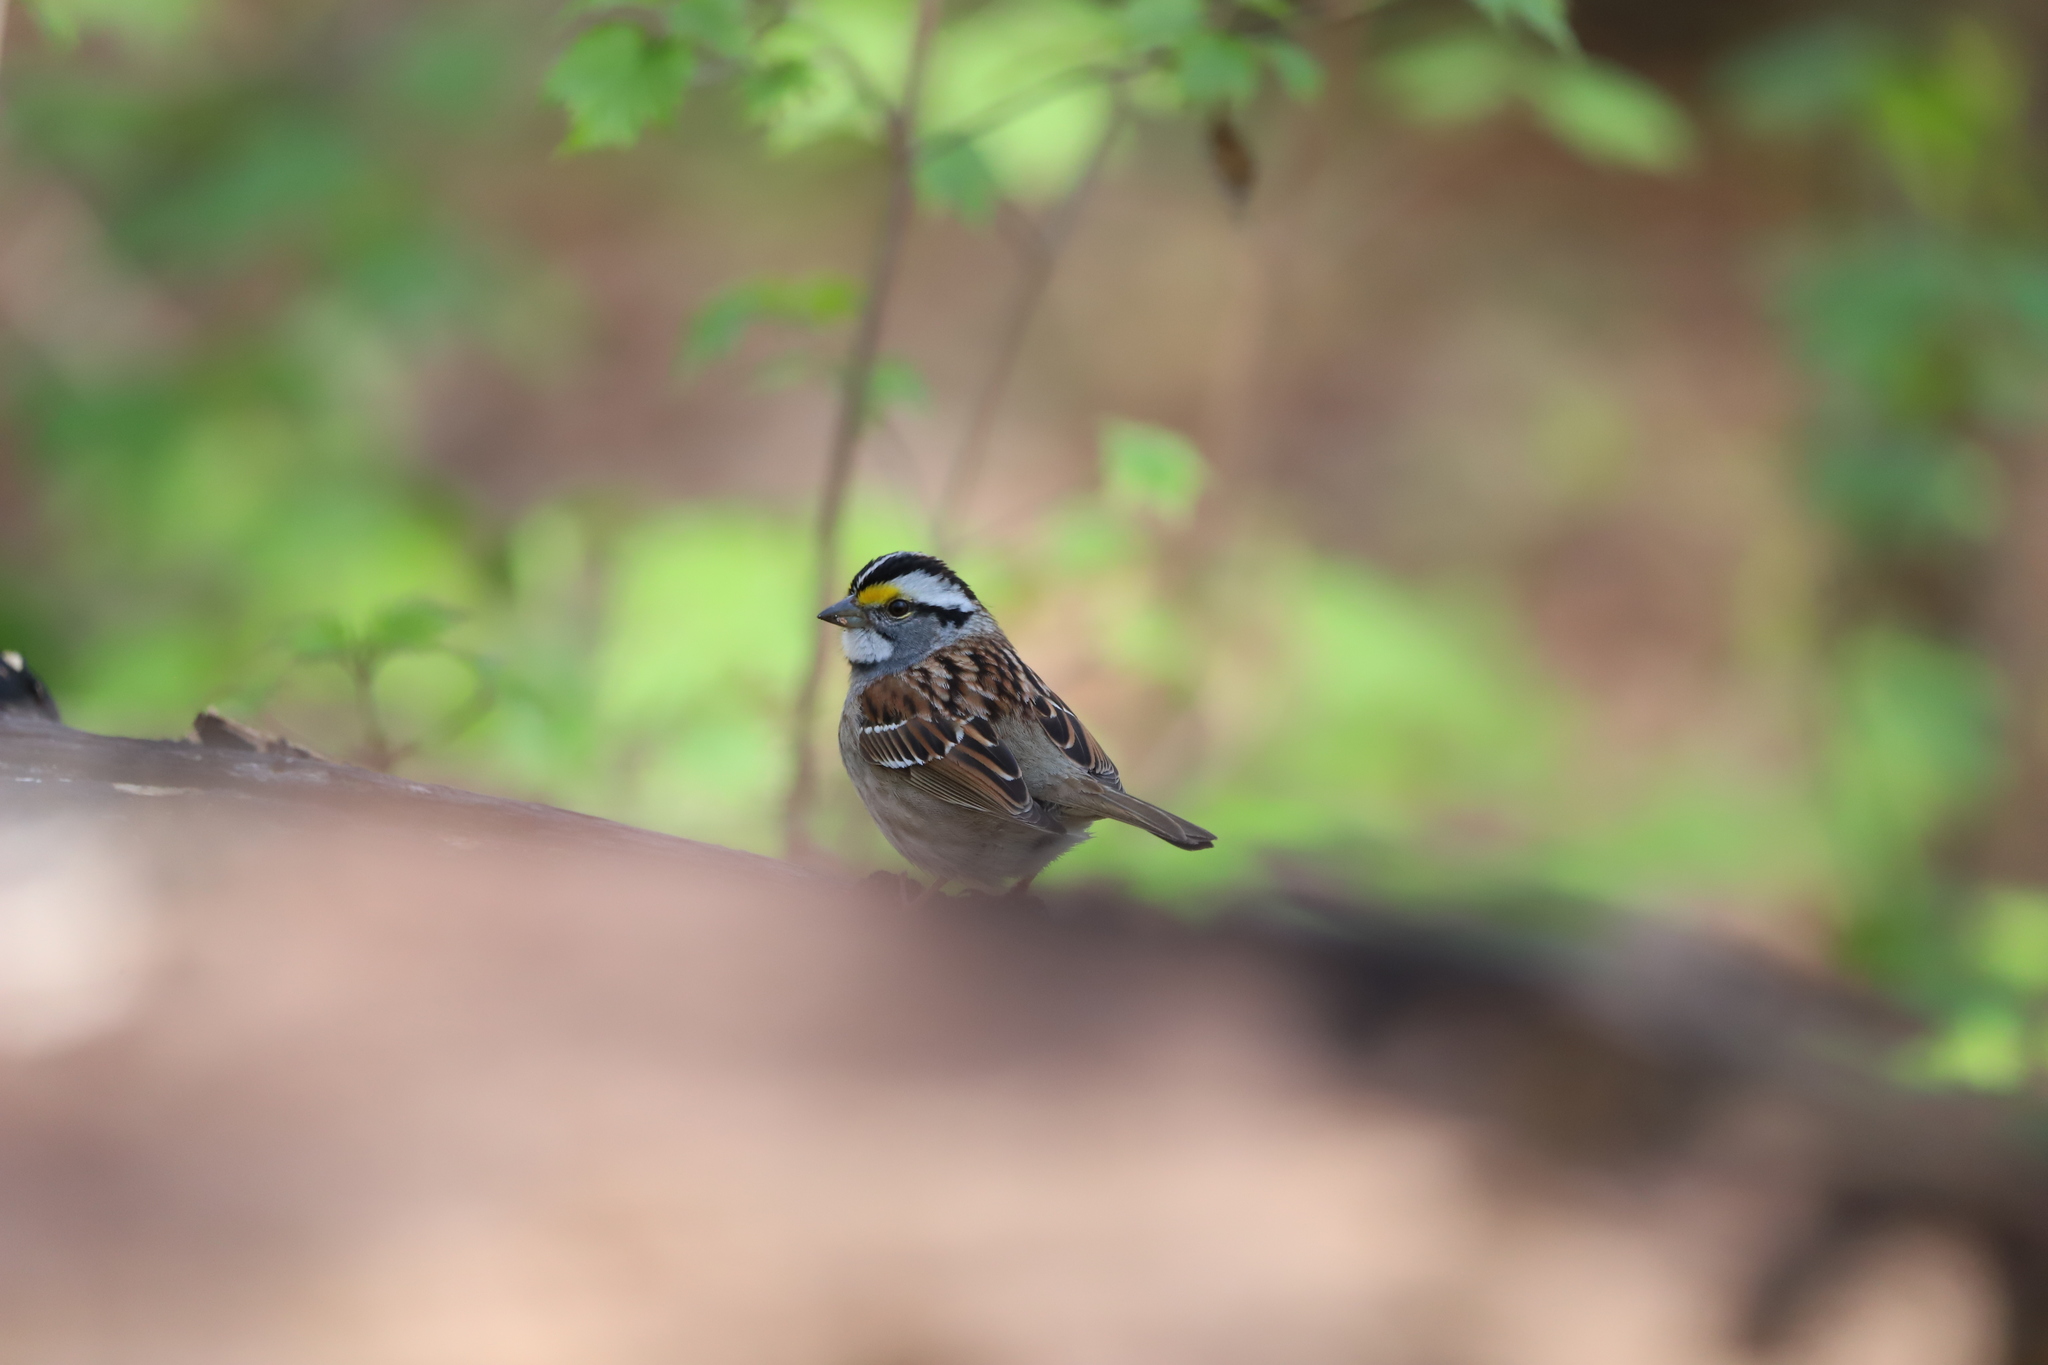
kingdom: Animalia
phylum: Chordata
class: Aves
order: Passeriformes
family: Passerellidae
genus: Zonotrichia
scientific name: Zonotrichia albicollis
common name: White-throated sparrow
